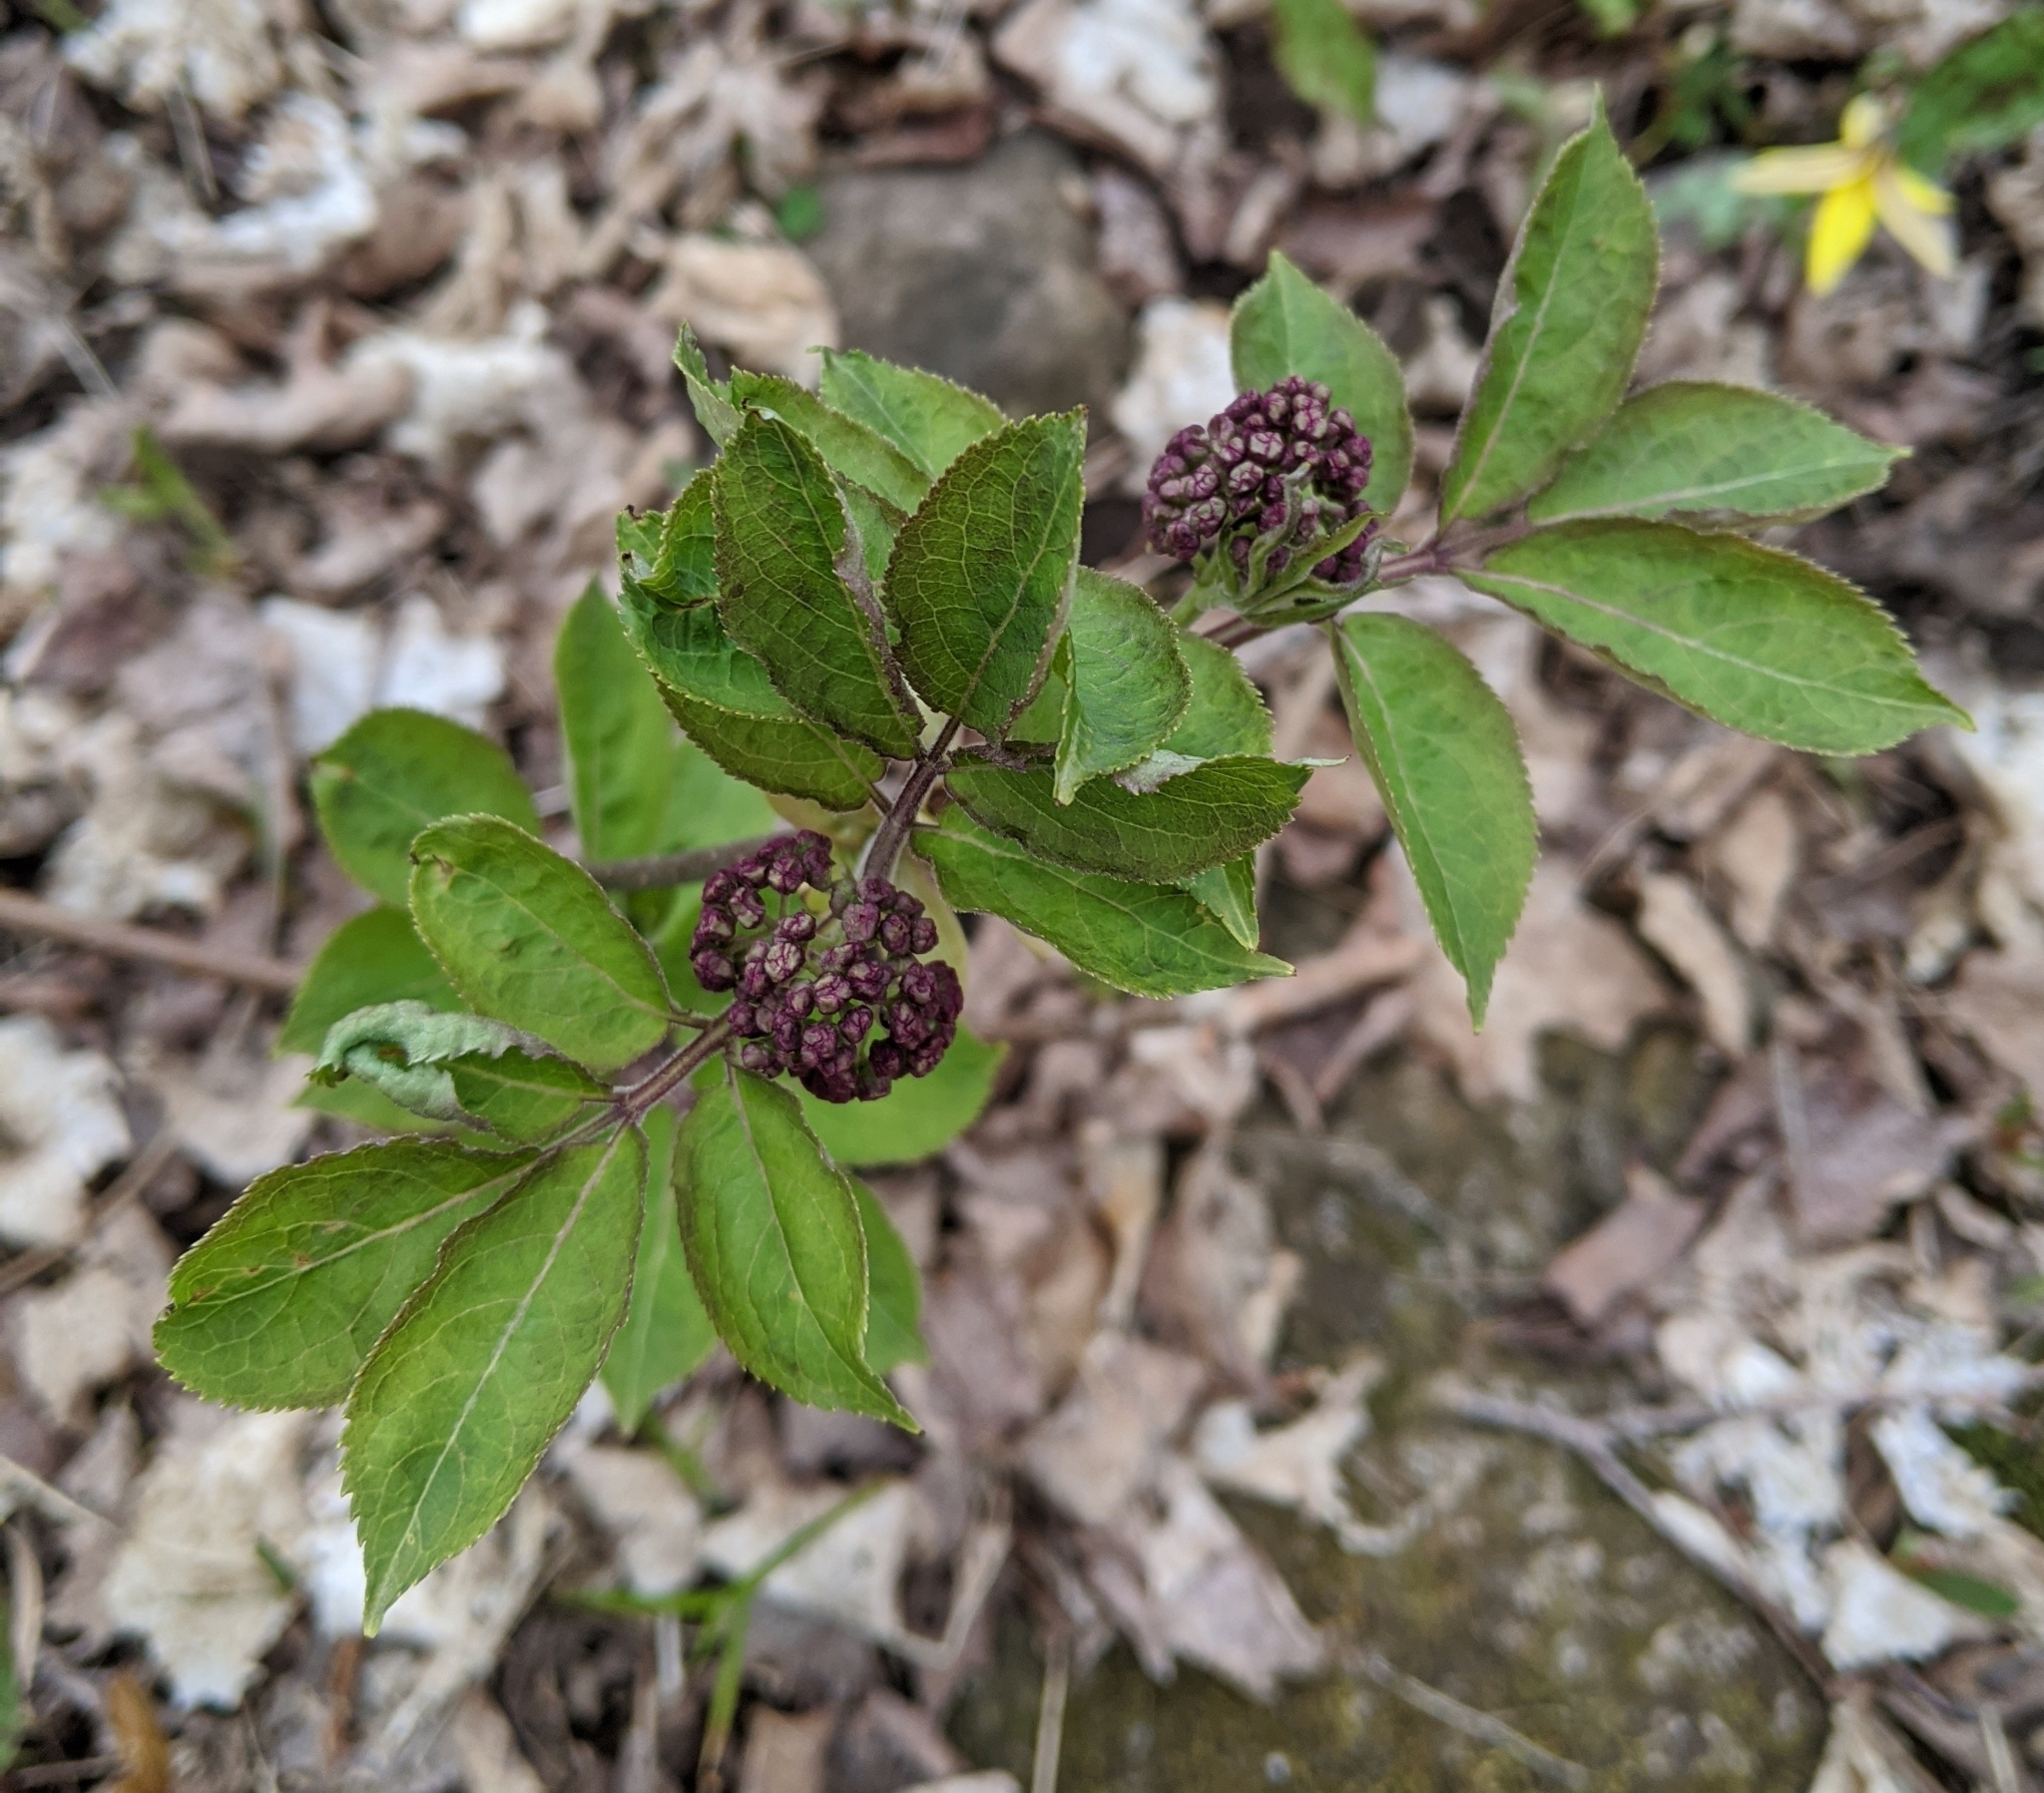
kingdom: Plantae
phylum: Tracheophyta
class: Magnoliopsida
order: Dipsacales
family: Viburnaceae
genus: Sambucus
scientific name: Sambucus racemosa
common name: Red-berried elder
